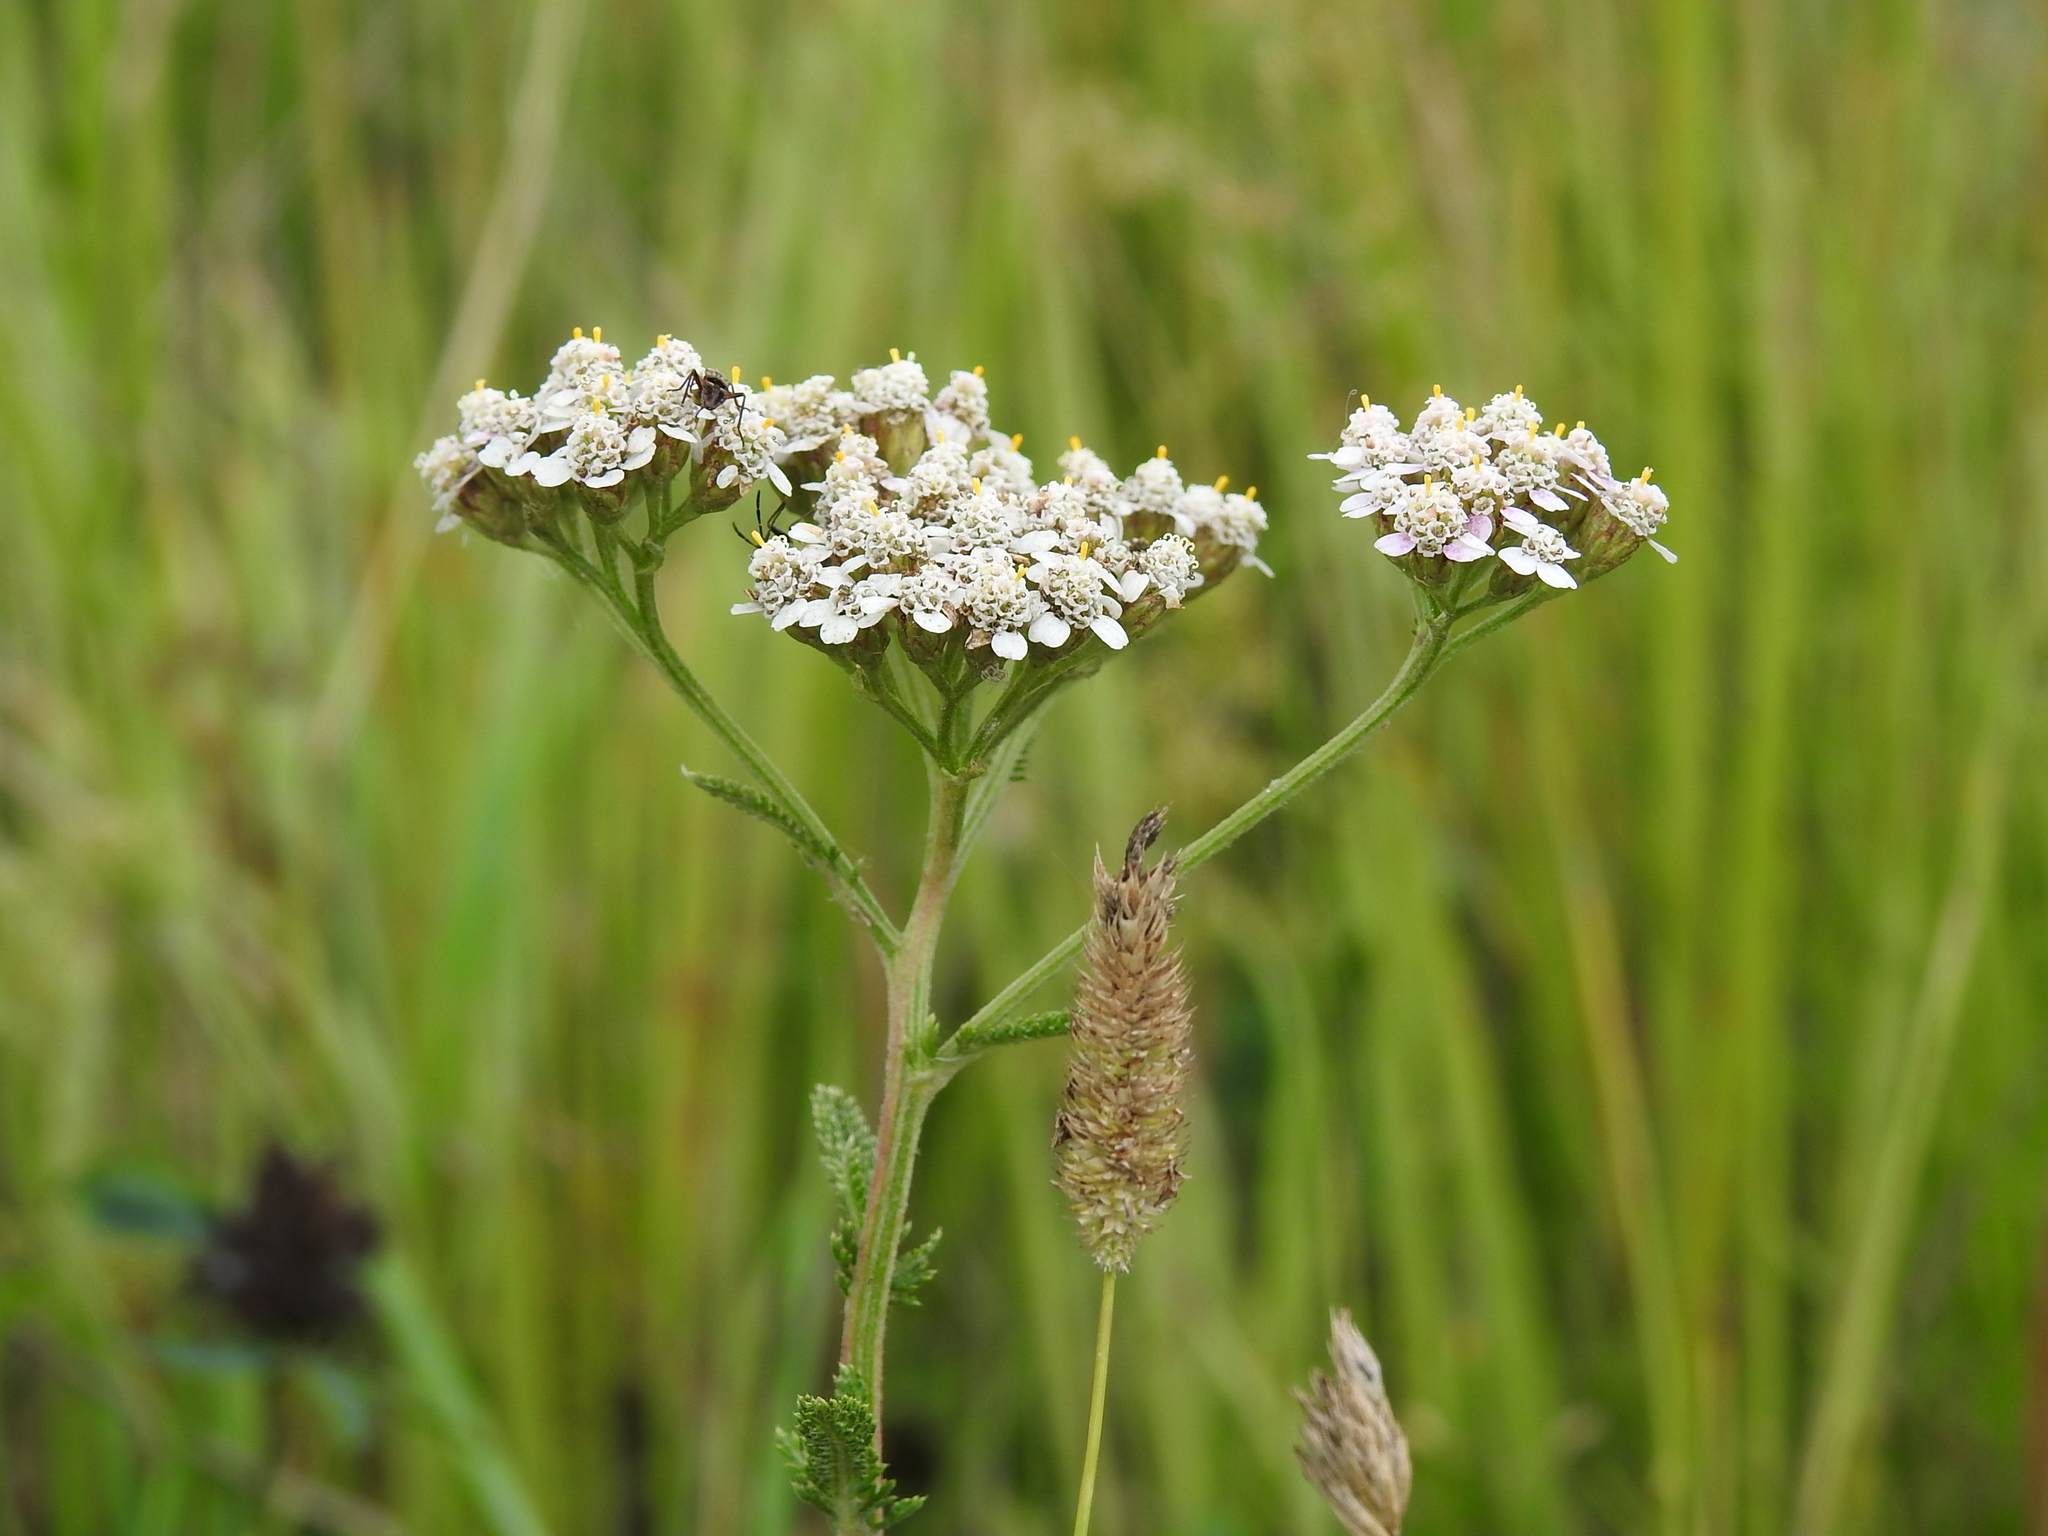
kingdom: Plantae
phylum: Tracheophyta
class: Magnoliopsida
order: Asterales
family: Asteraceae
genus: Achillea
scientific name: Achillea millefolium
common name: Yarrow
